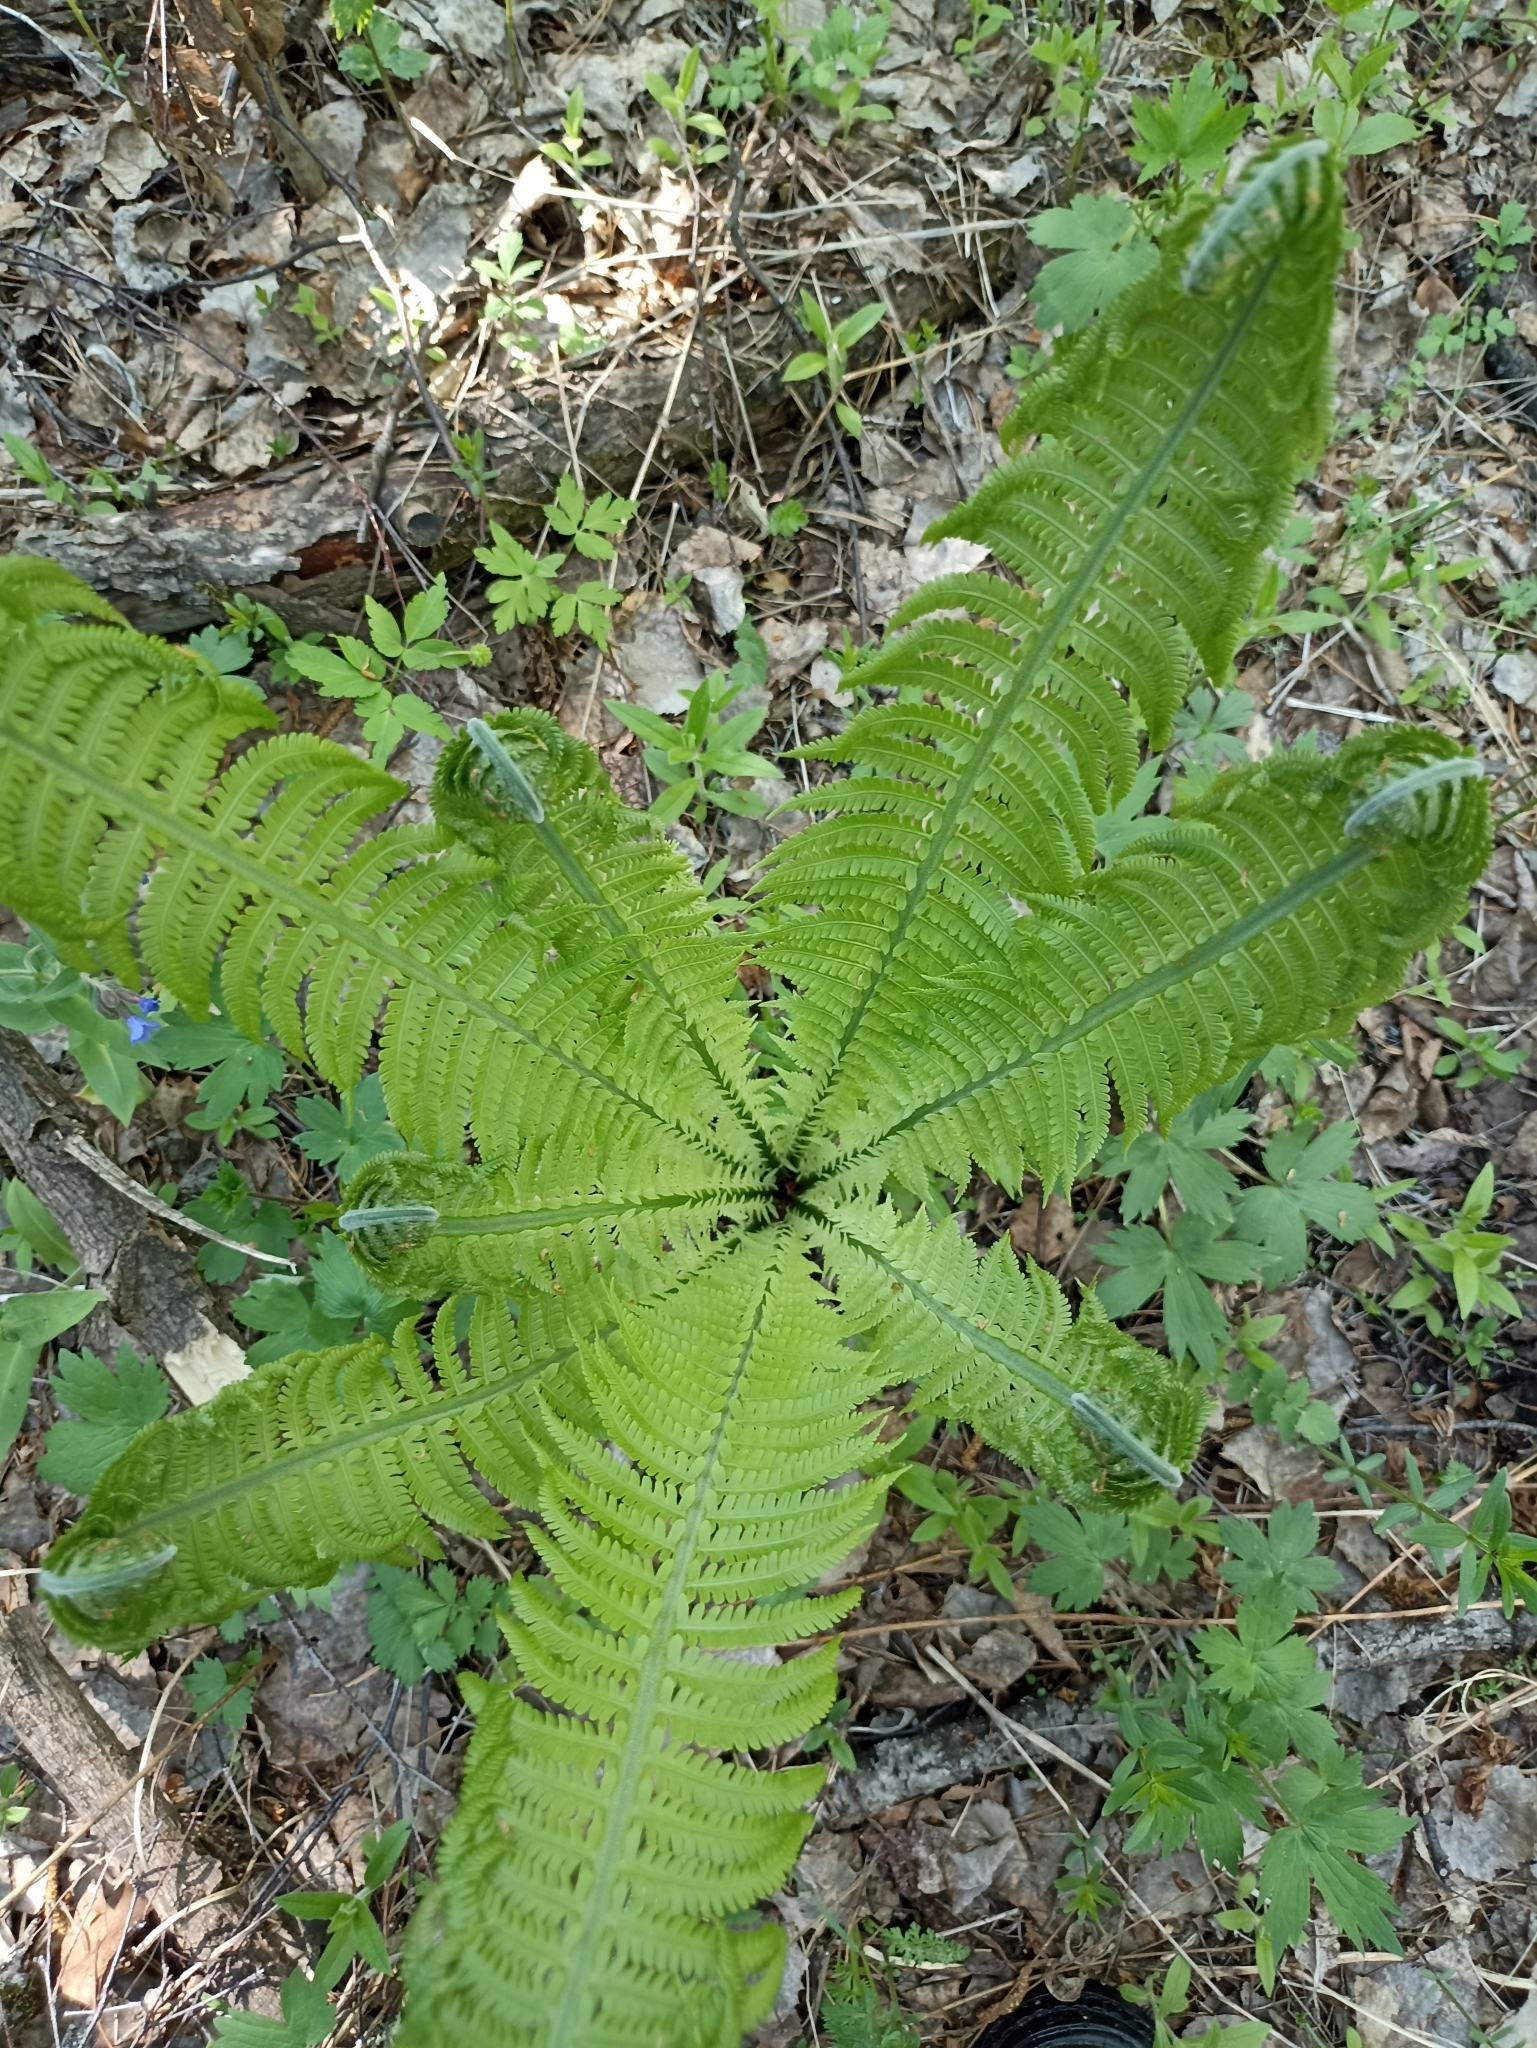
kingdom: Plantae
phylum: Tracheophyta
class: Polypodiopsida
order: Polypodiales
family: Onocleaceae
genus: Matteuccia
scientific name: Matteuccia struthiopteris
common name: Ostrich fern
